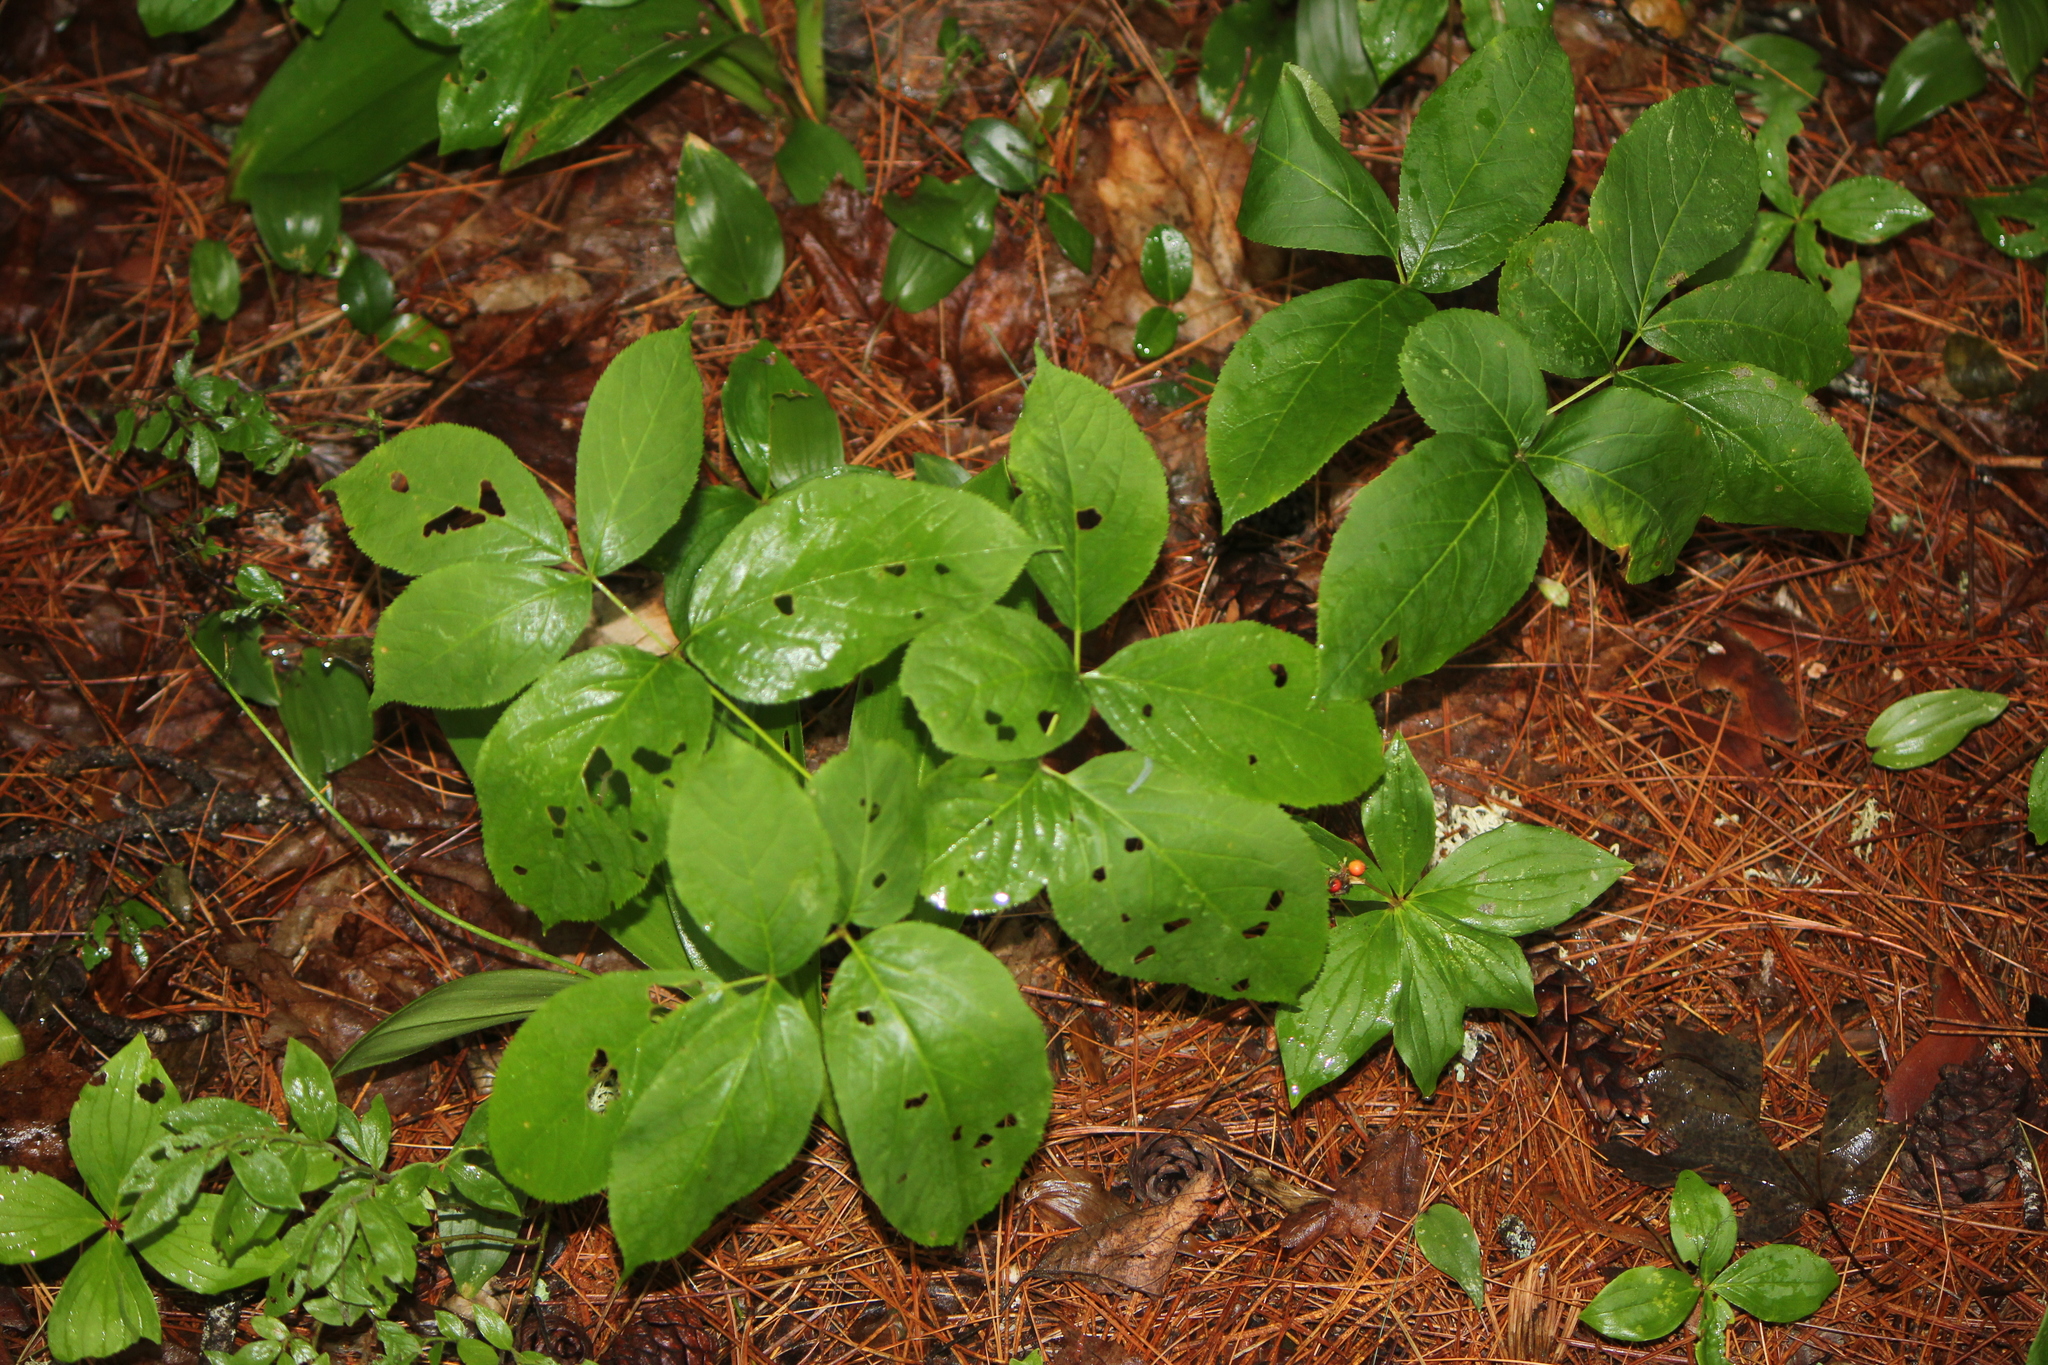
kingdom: Plantae
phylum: Tracheophyta
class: Magnoliopsida
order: Apiales
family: Araliaceae
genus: Aralia
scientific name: Aralia nudicaulis
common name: Wild sarsaparilla
